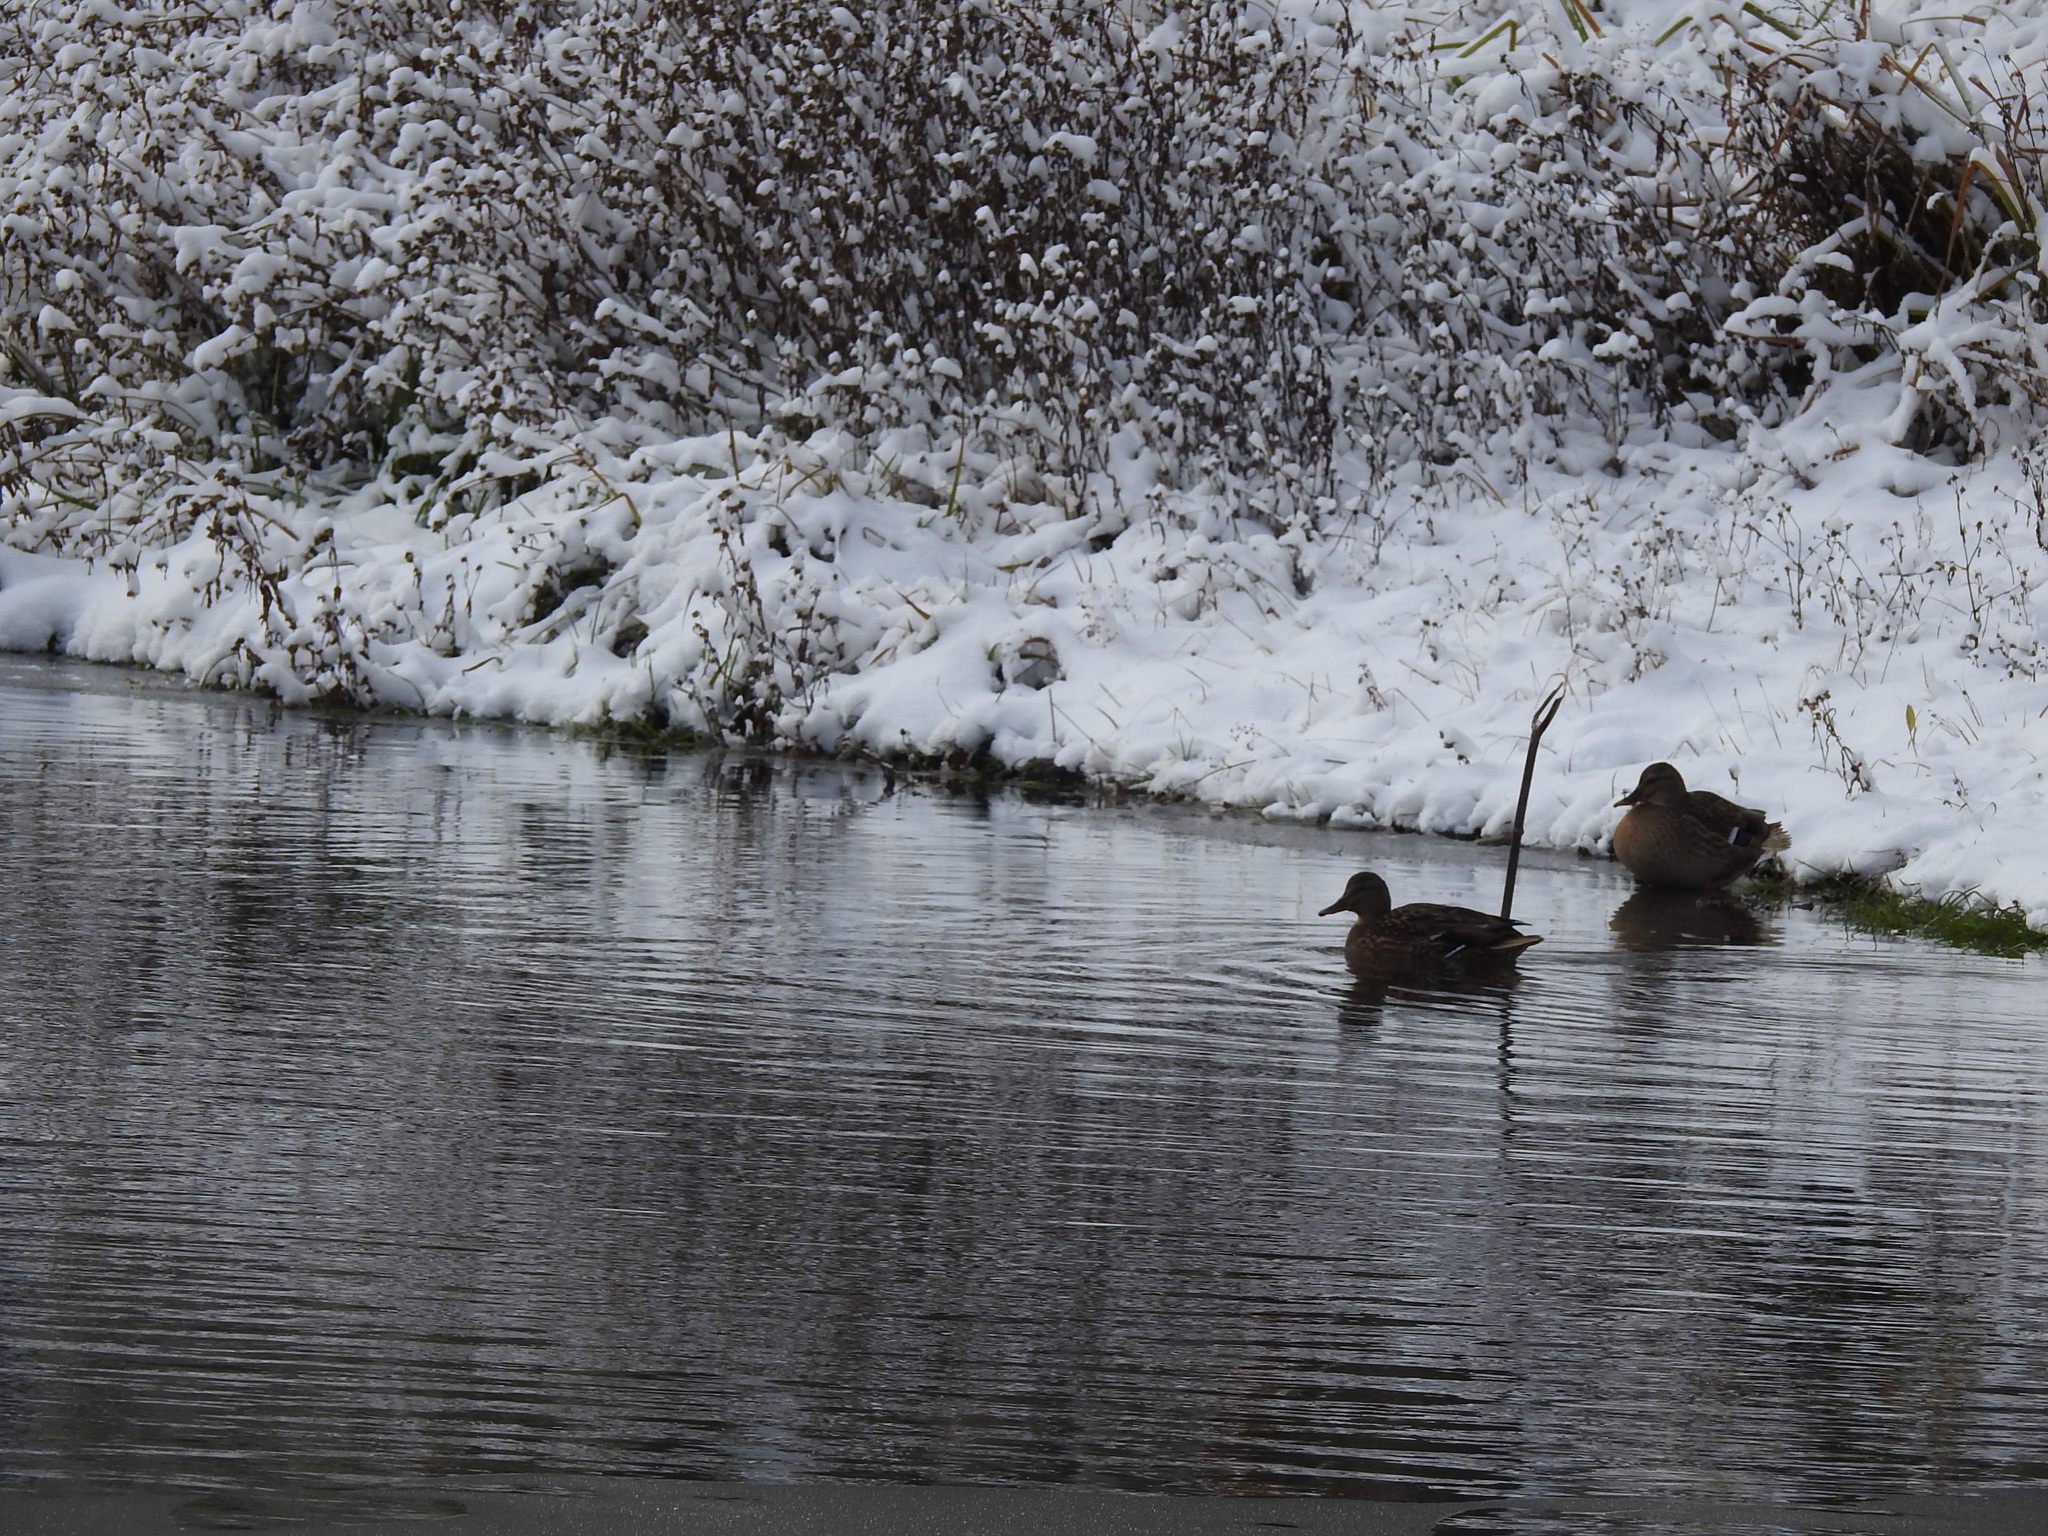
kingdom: Animalia
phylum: Chordata
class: Aves
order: Anseriformes
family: Anatidae
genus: Anas
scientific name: Anas platyrhynchos
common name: Mallard
